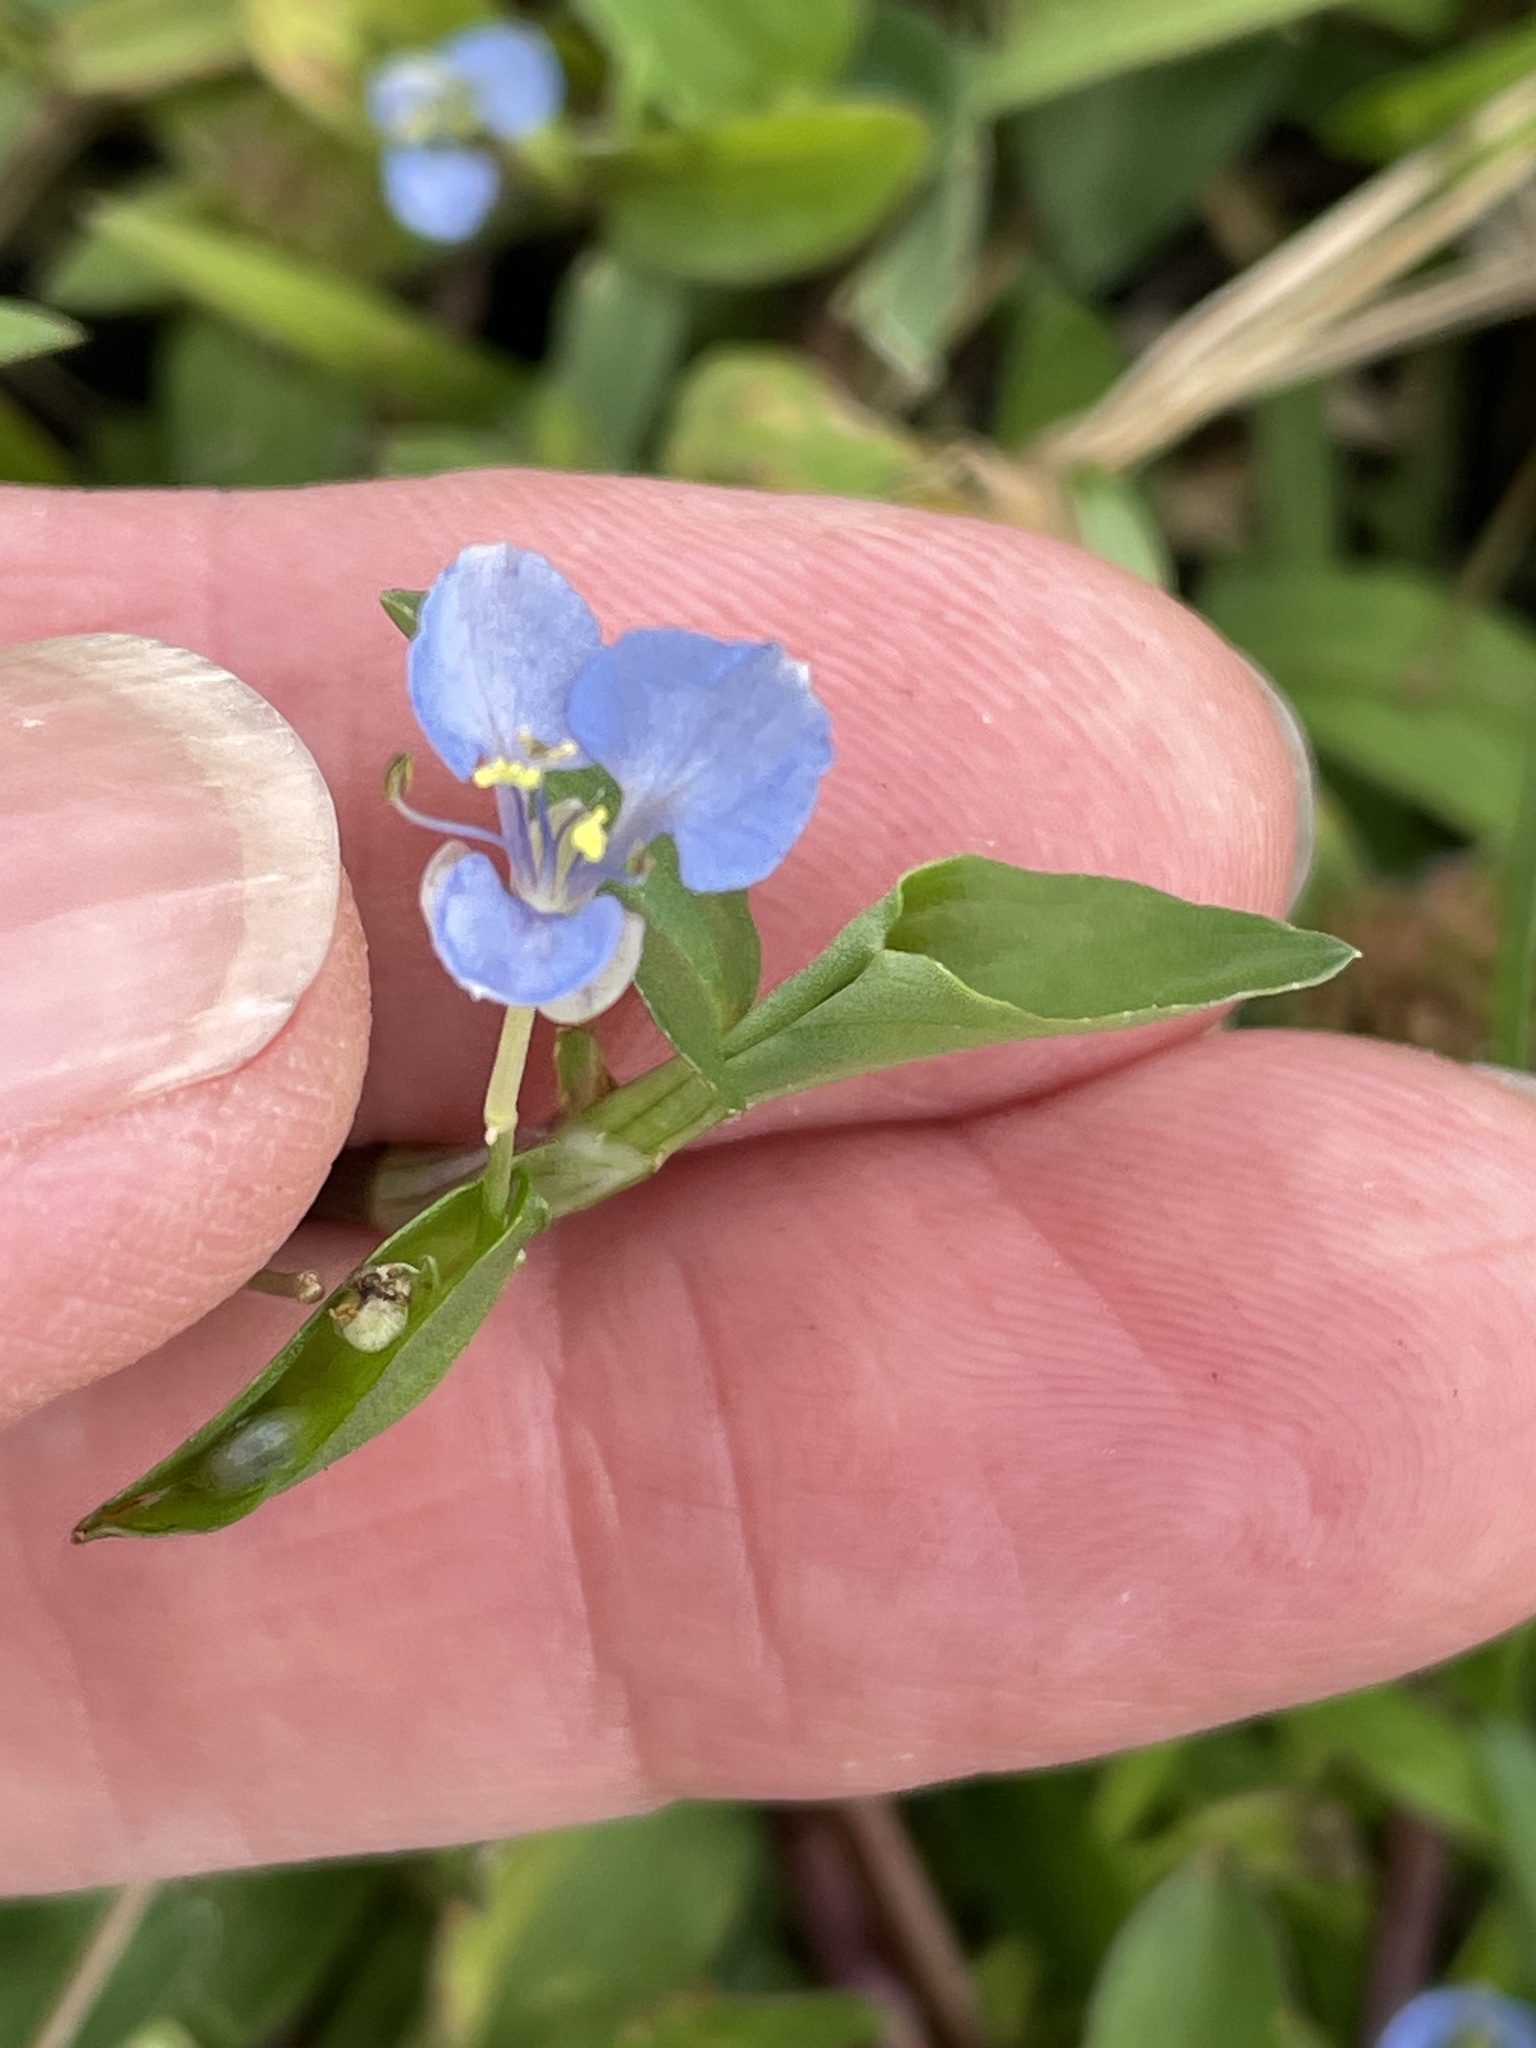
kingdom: Plantae
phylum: Tracheophyta
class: Liliopsida
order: Commelinales
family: Commelinaceae
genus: Commelina
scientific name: Commelina diffusa
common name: Climbing dayflower
